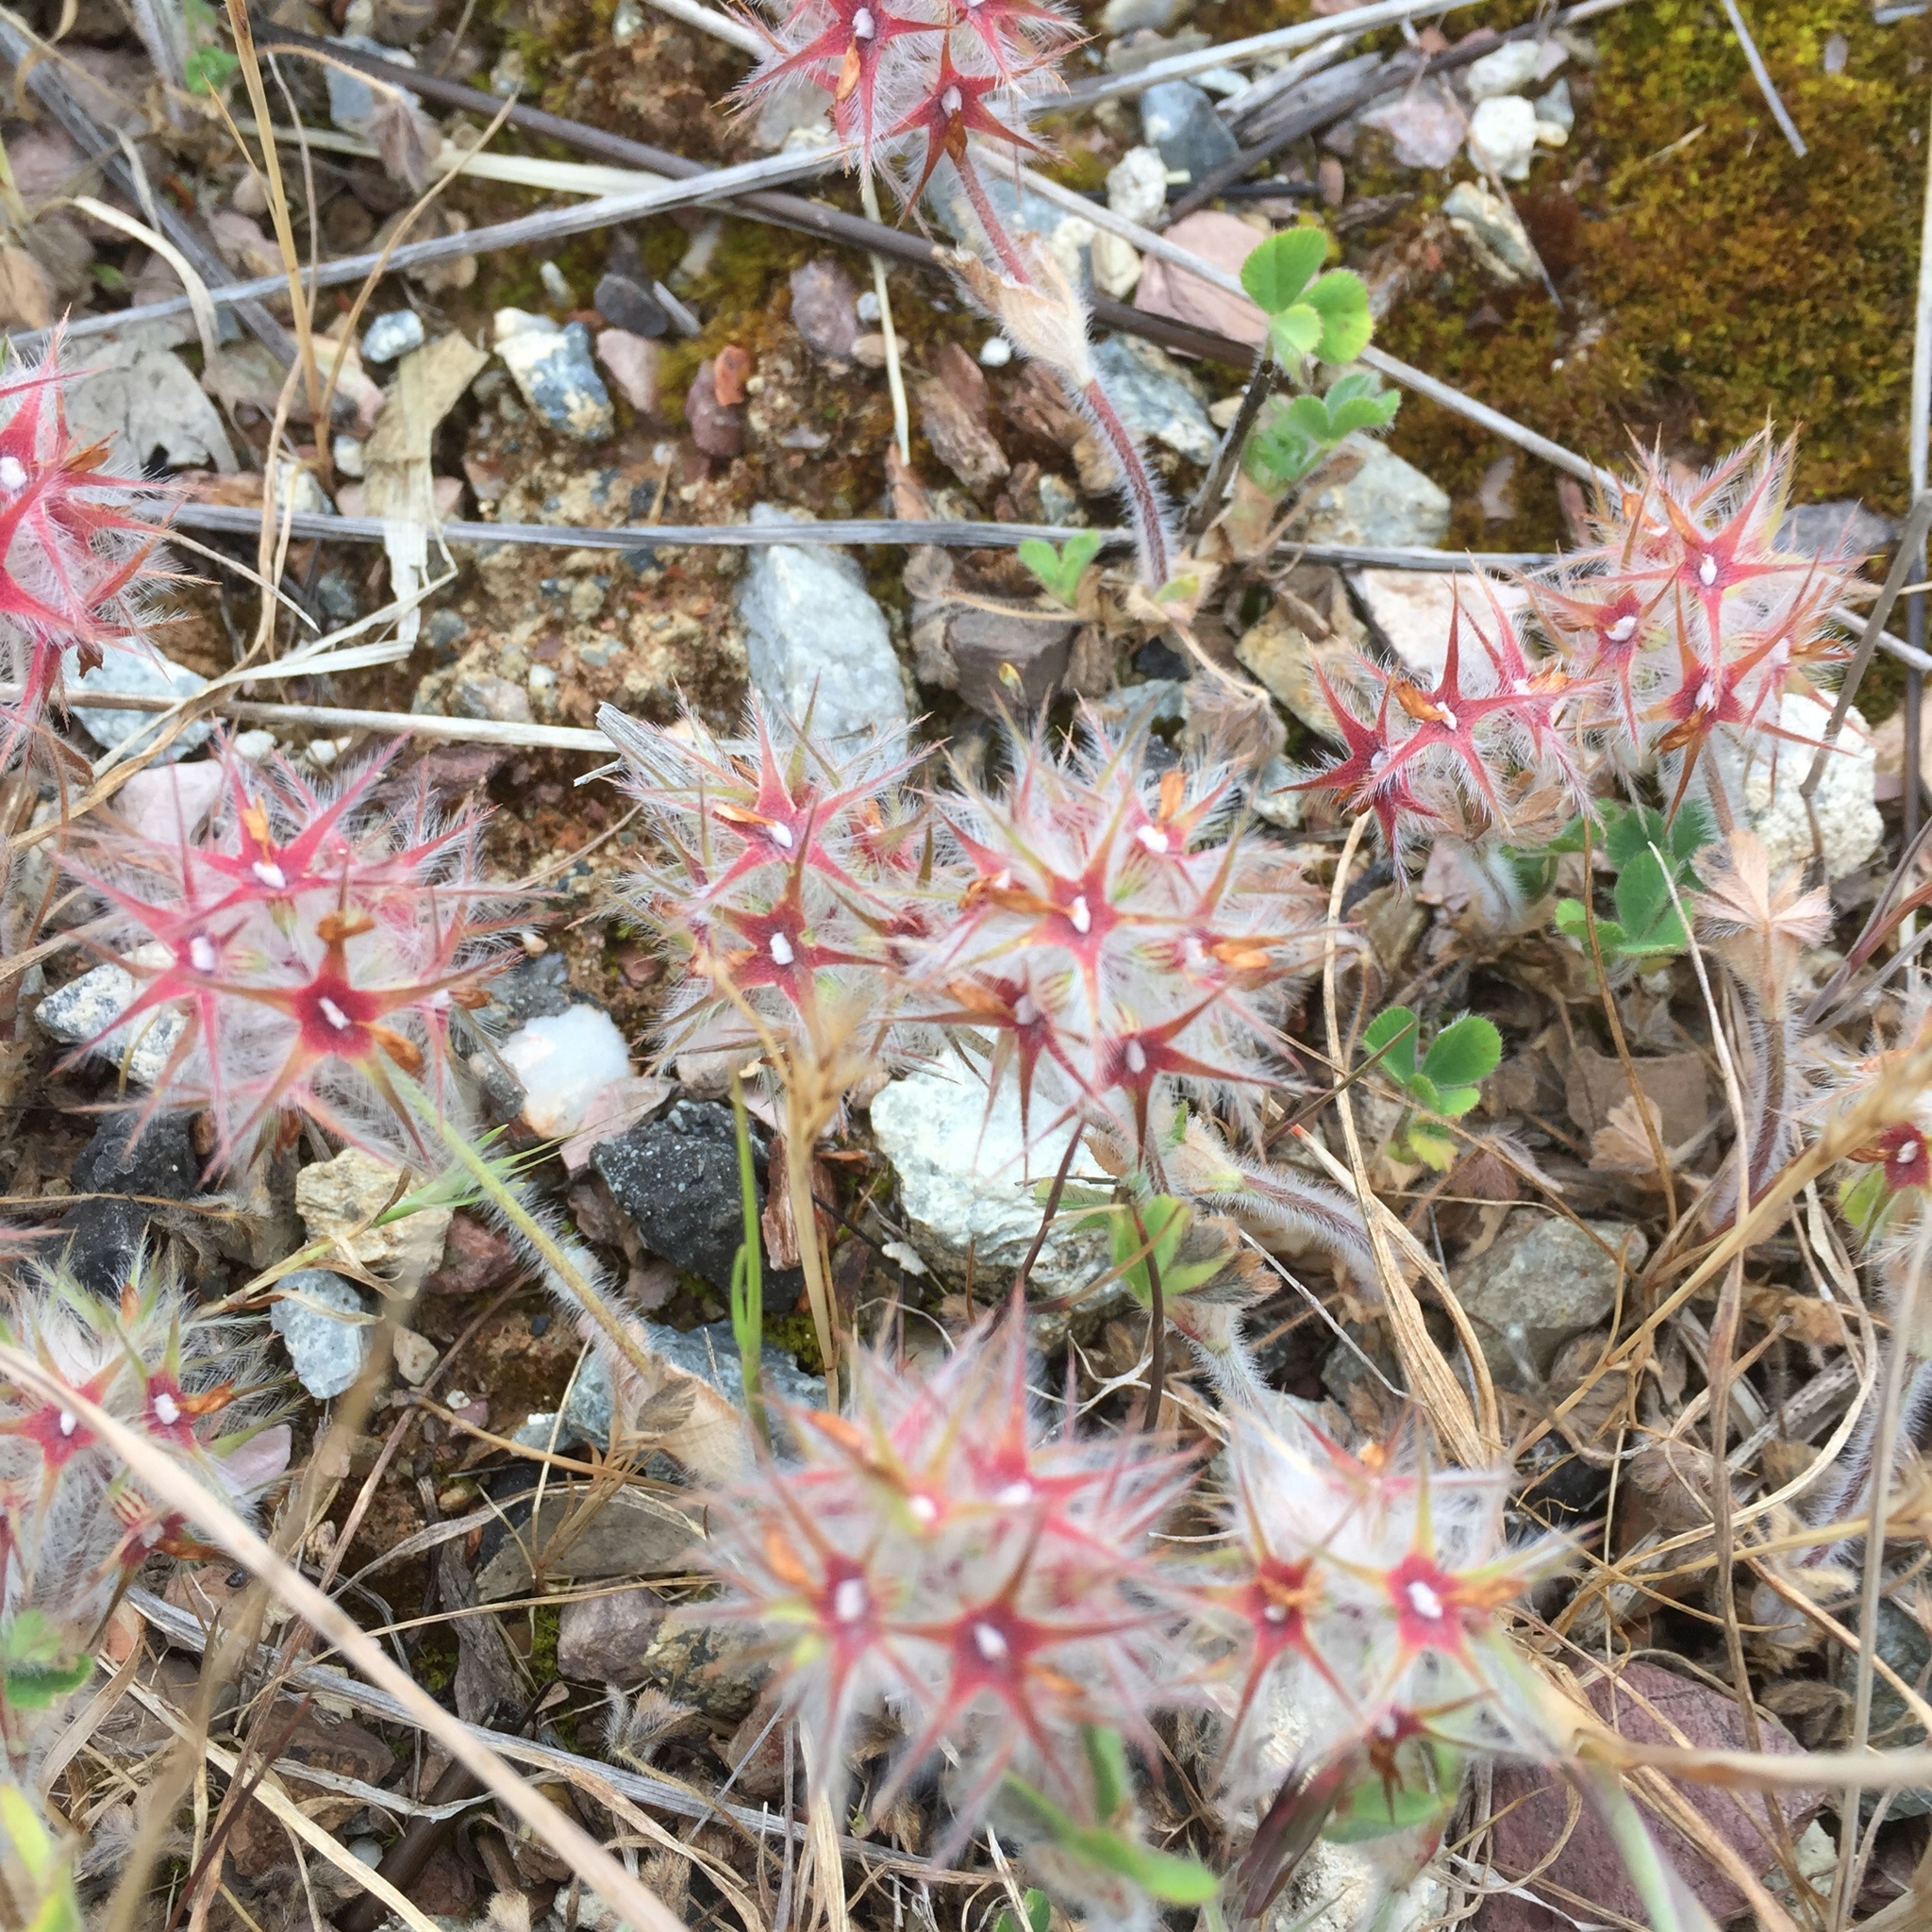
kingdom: Plantae
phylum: Tracheophyta
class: Magnoliopsida
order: Fabales
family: Fabaceae
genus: Trifolium
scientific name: Trifolium stellatum
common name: Starry clover
